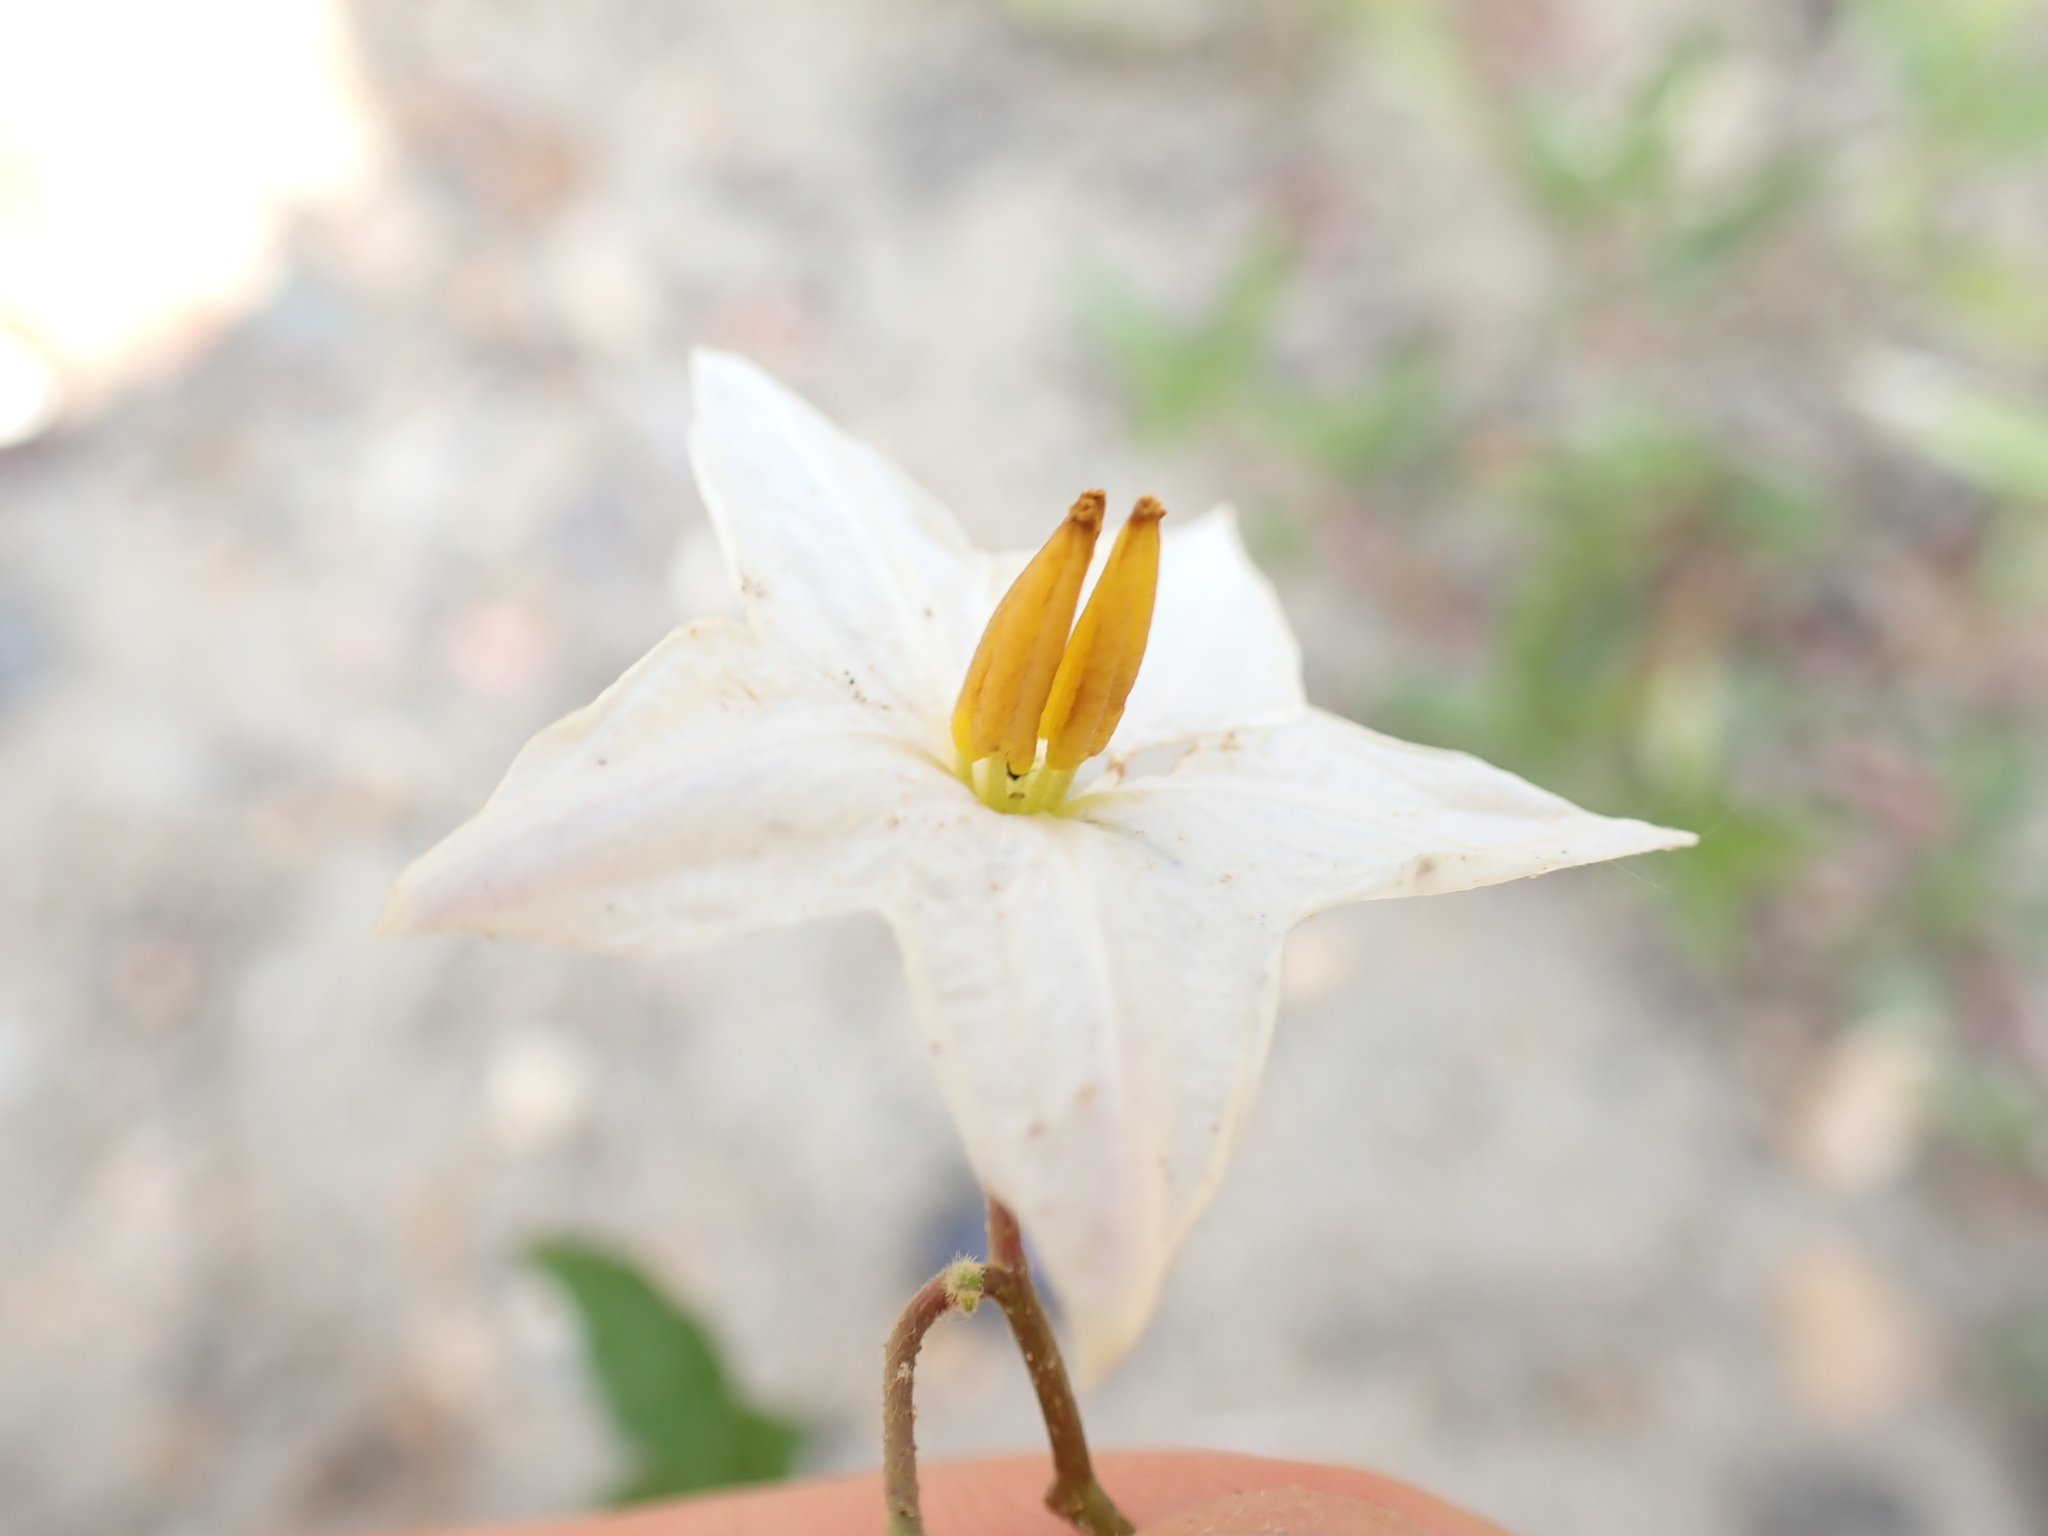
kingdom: Plantae
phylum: Tracheophyta
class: Magnoliopsida
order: Solanales
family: Solanaceae
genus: Solanum
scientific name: Solanum carolinense
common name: Horse-nettle
